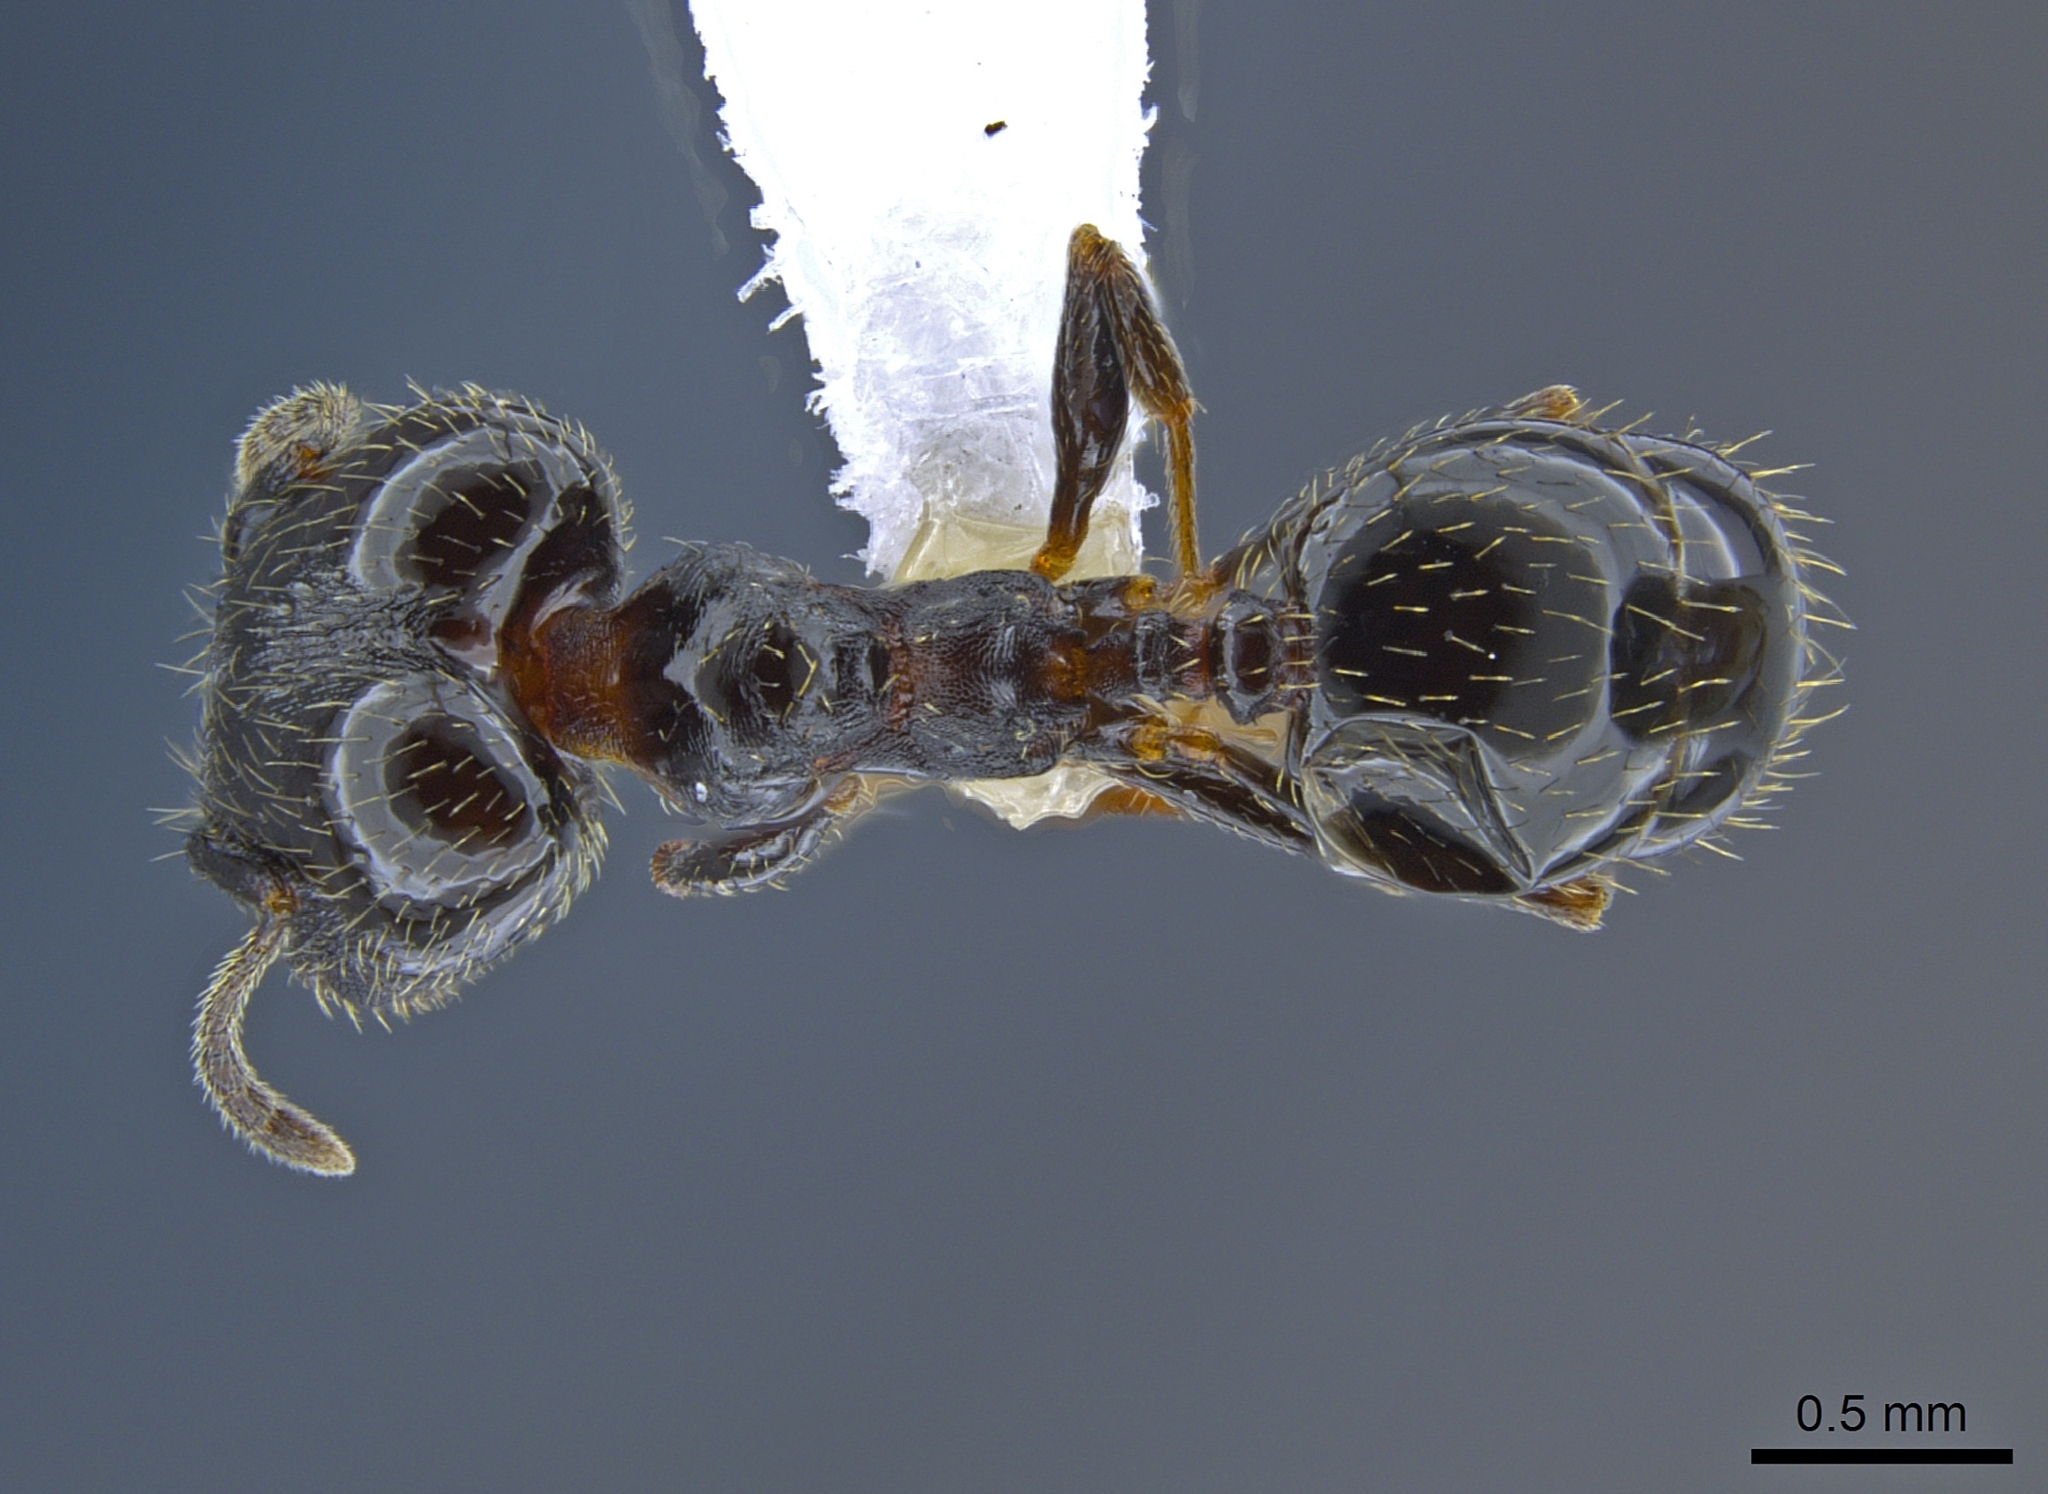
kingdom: Animalia
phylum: Arthropoda
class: Insecta
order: Hymenoptera
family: Formicidae
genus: Pheidole
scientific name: Pheidole ceres
